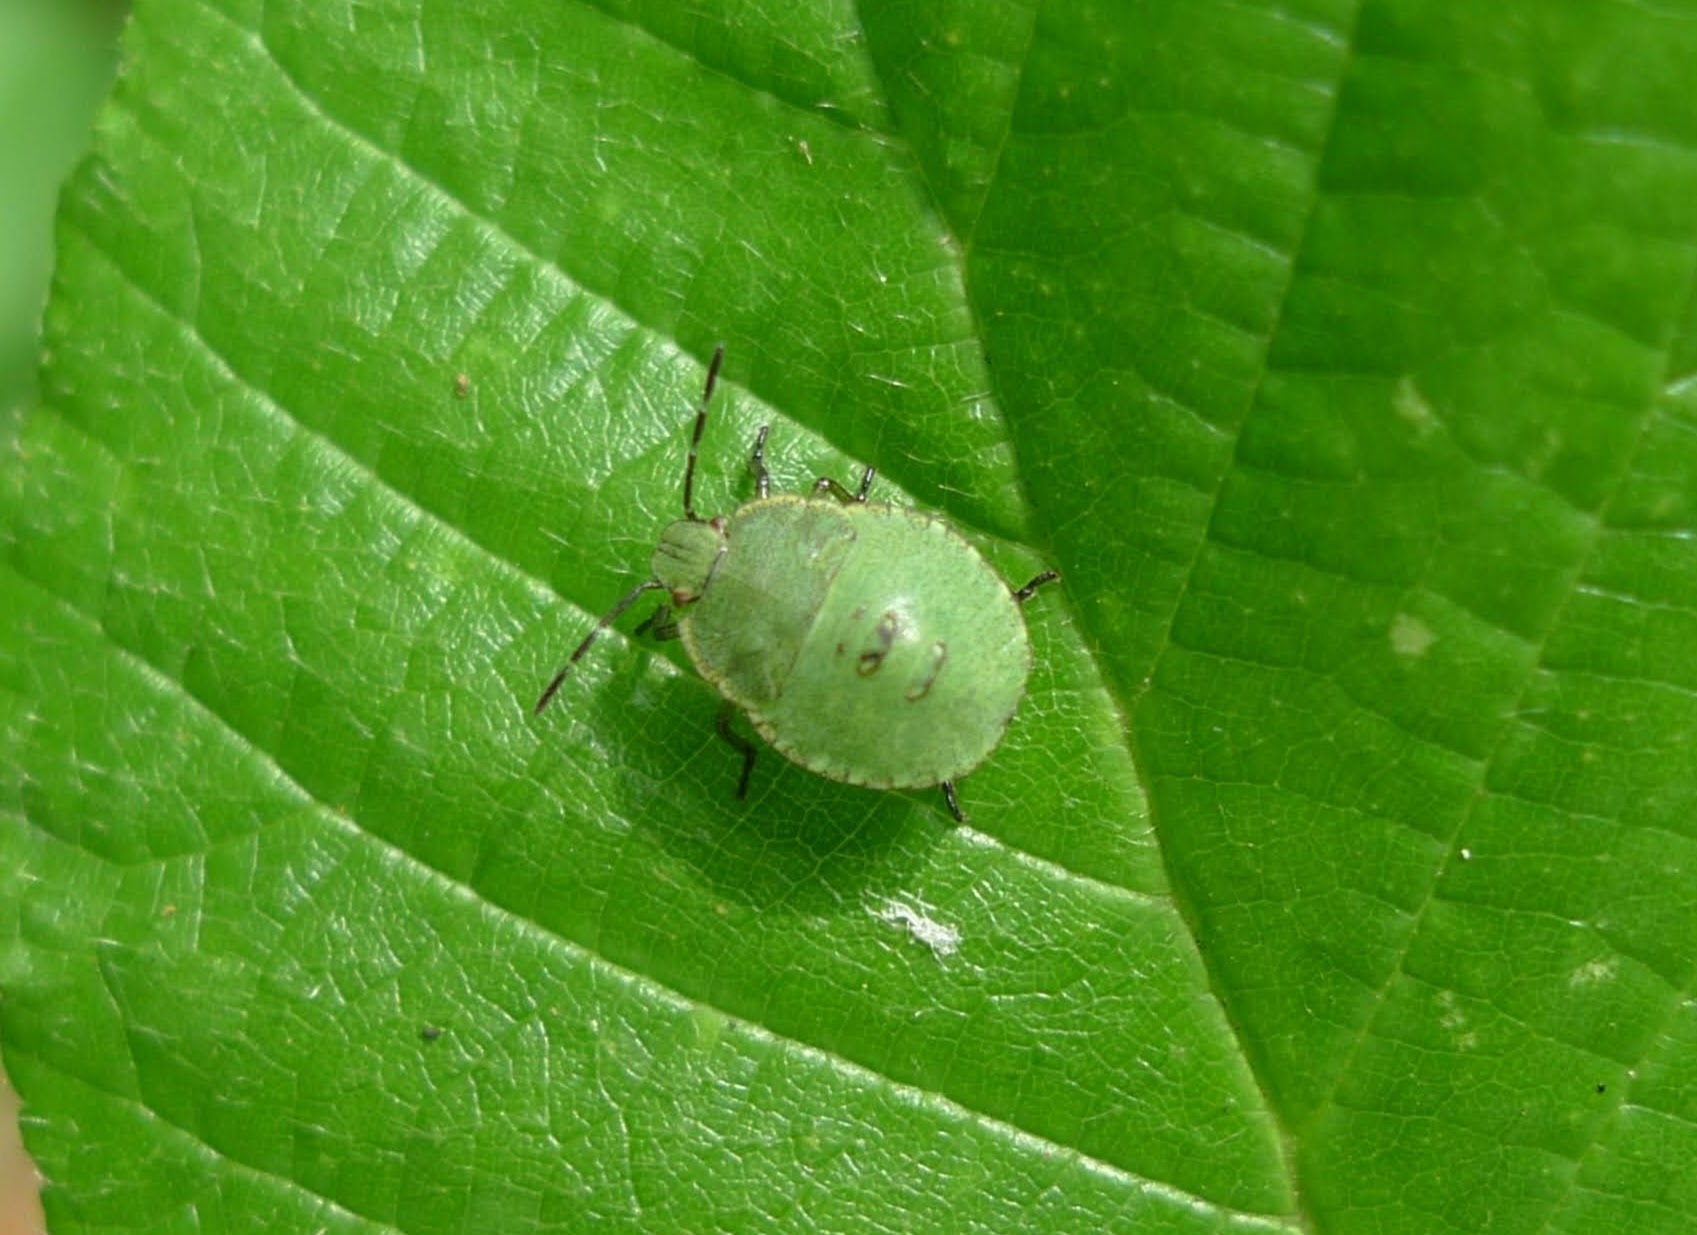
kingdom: Animalia
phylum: Arthropoda
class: Insecta
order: Hemiptera
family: Pentatomidae
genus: Palomena
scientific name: Palomena prasina
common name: Green shieldbug
